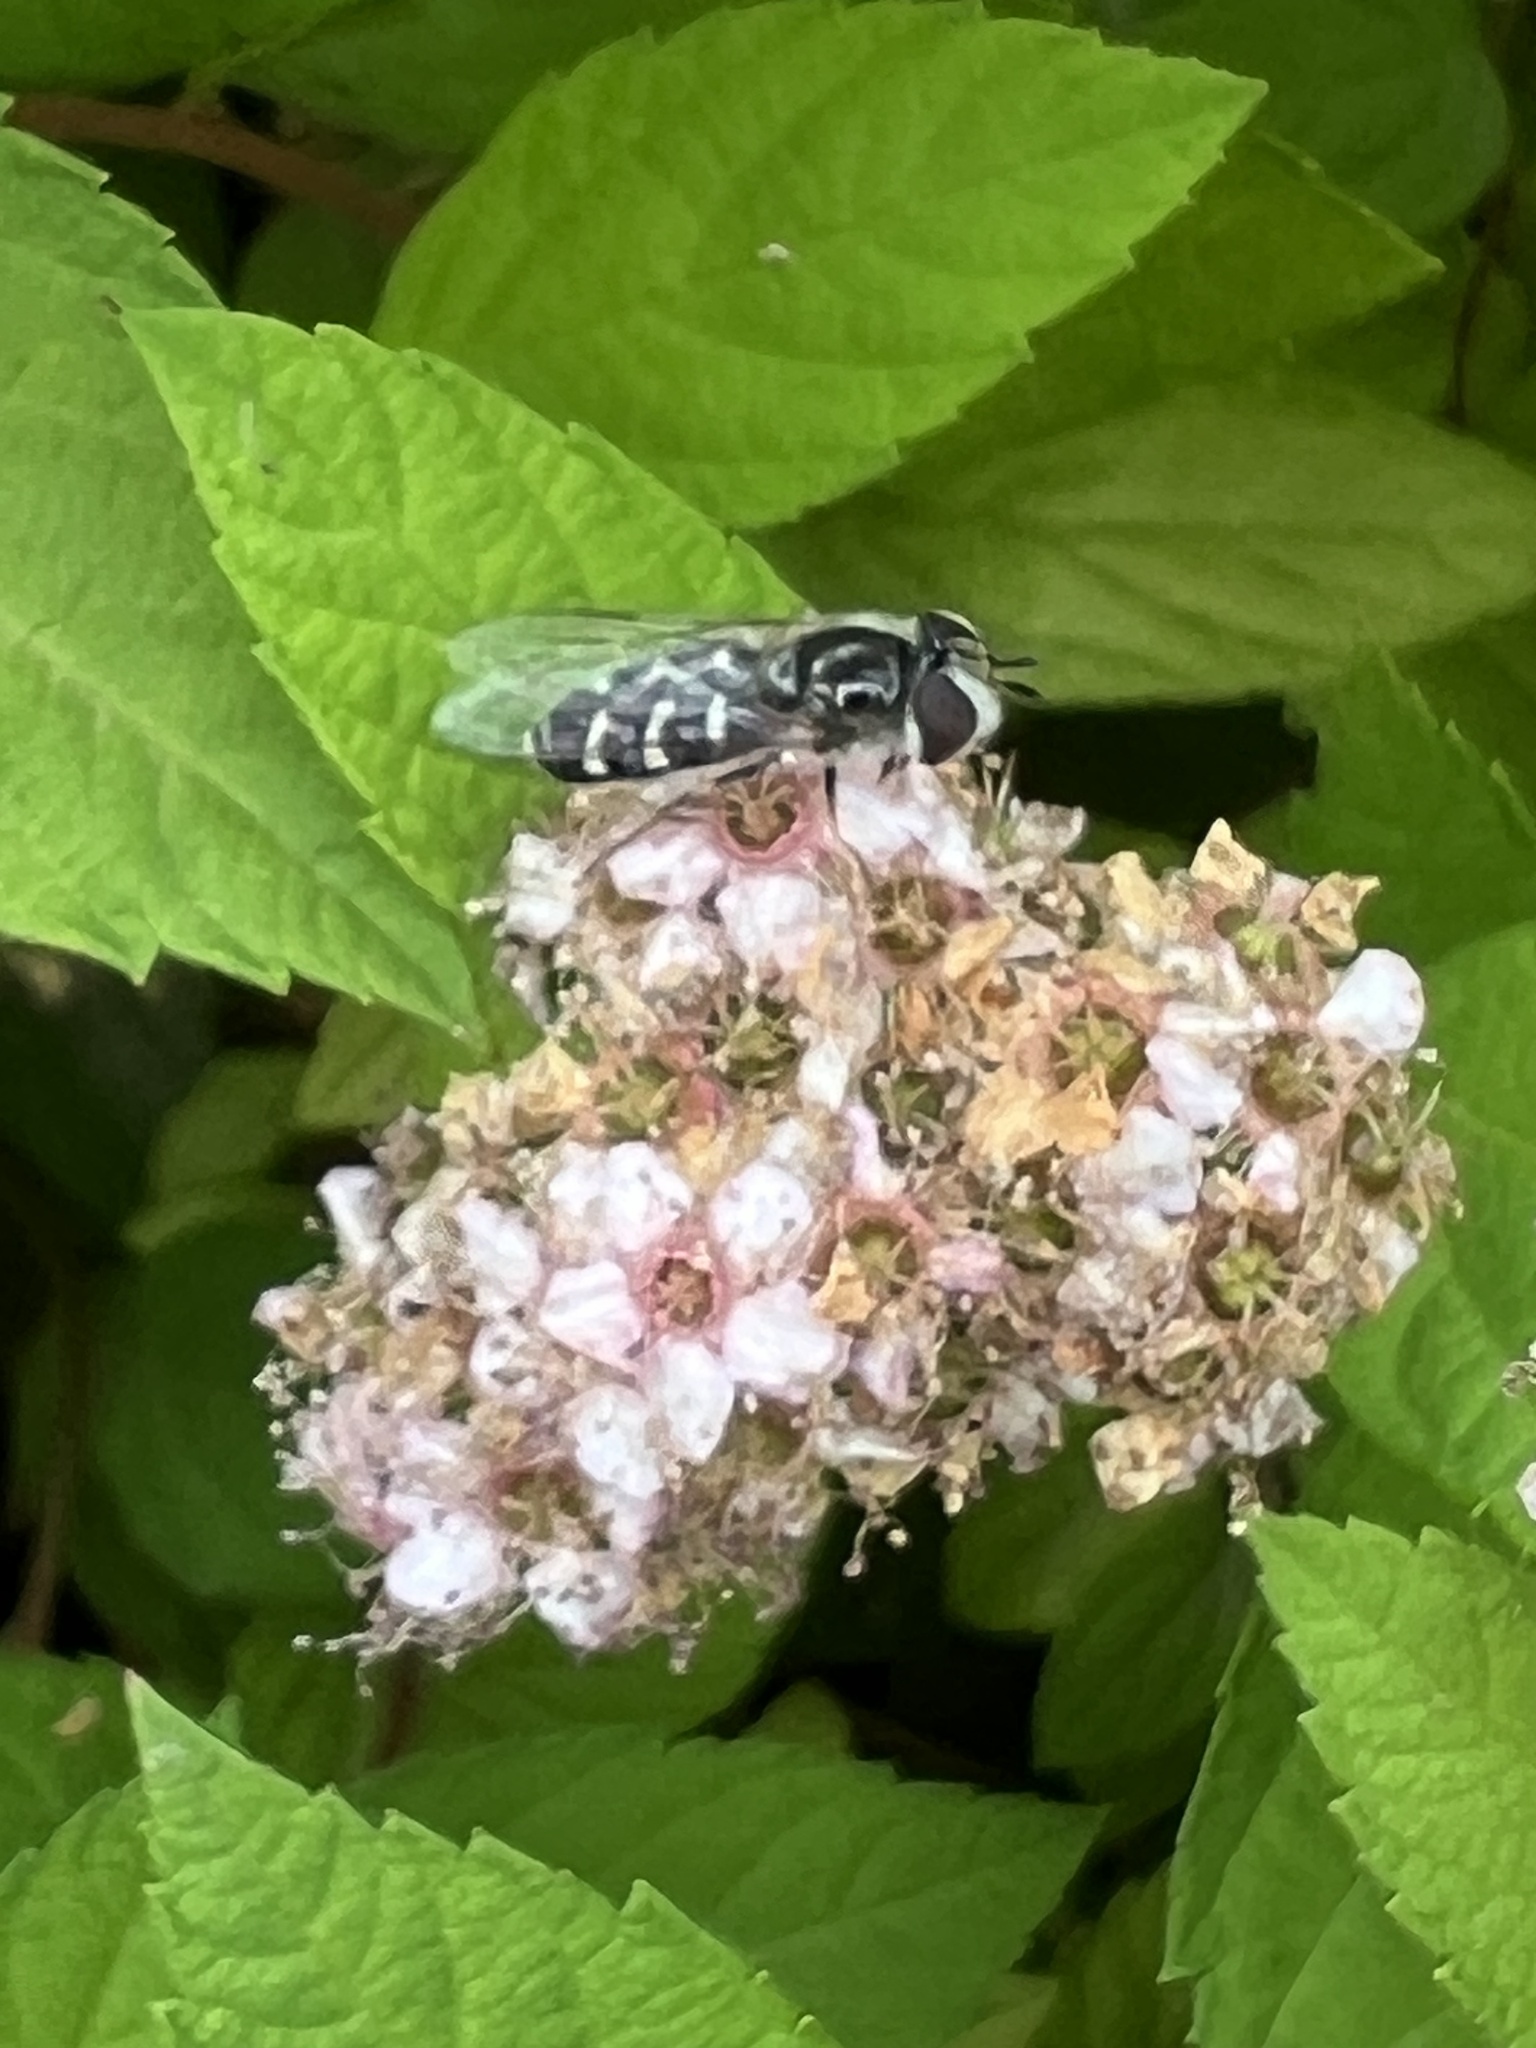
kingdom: Animalia
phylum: Arthropoda
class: Insecta
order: Diptera
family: Syrphidae
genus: Scaeva
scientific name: Scaeva affinis
